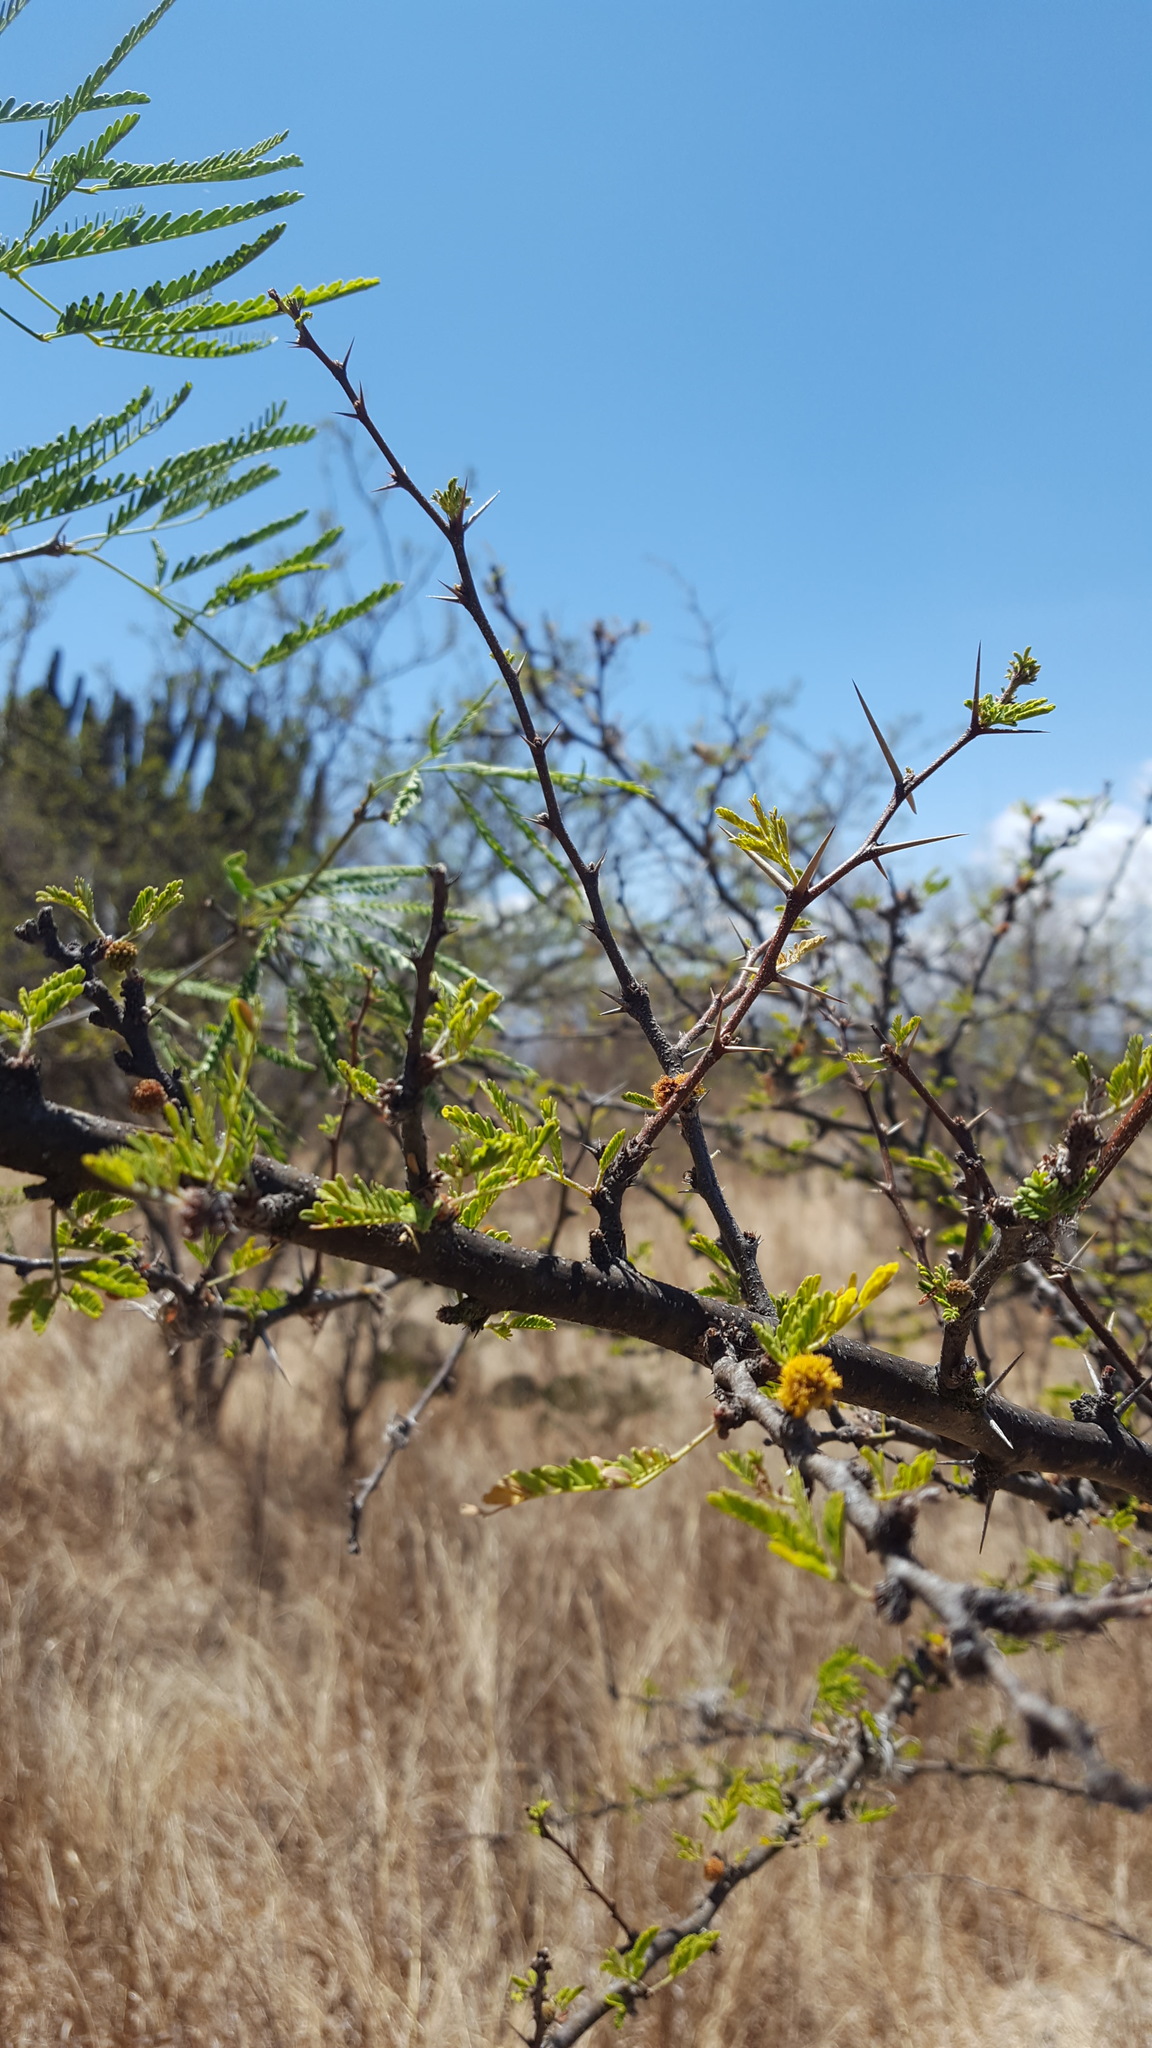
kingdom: Plantae
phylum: Tracheophyta
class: Magnoliopsida
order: Fabales
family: Fabaceae
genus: Vachellia
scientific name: Vachellia farnesiana
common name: Sweet acacia
